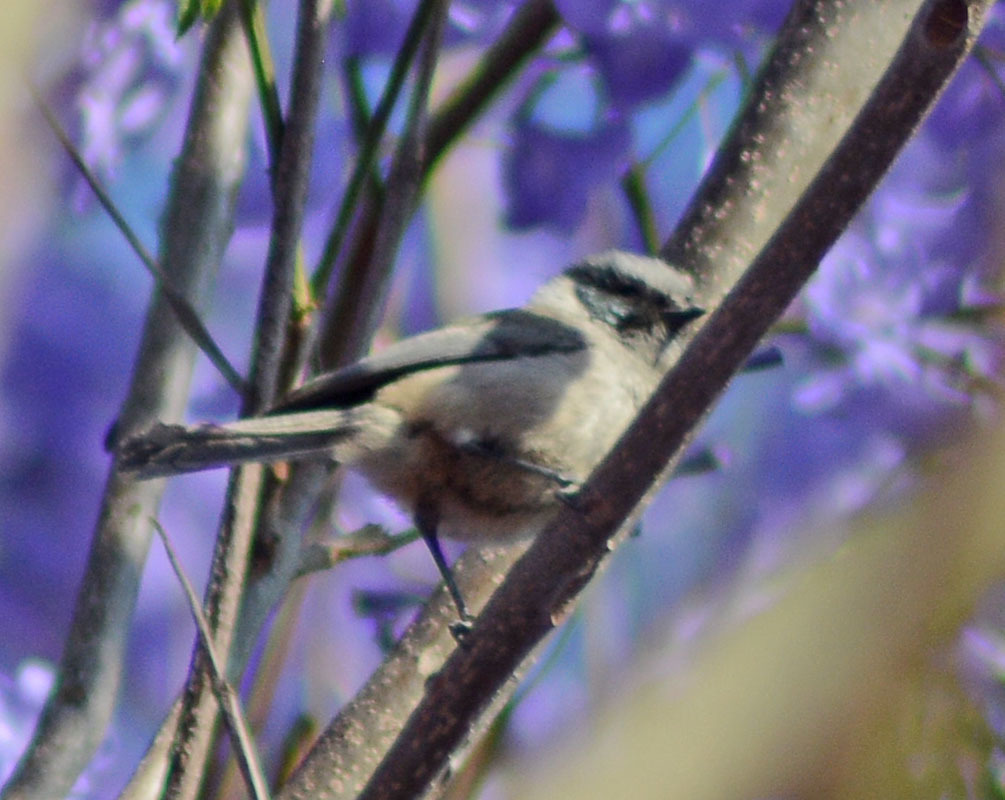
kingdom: Animalia
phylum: Chordata
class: Aves
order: Passeriformes
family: Aegithalidae
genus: Psaltriparus
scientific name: Psaltriparus minimus
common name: American bushtit
